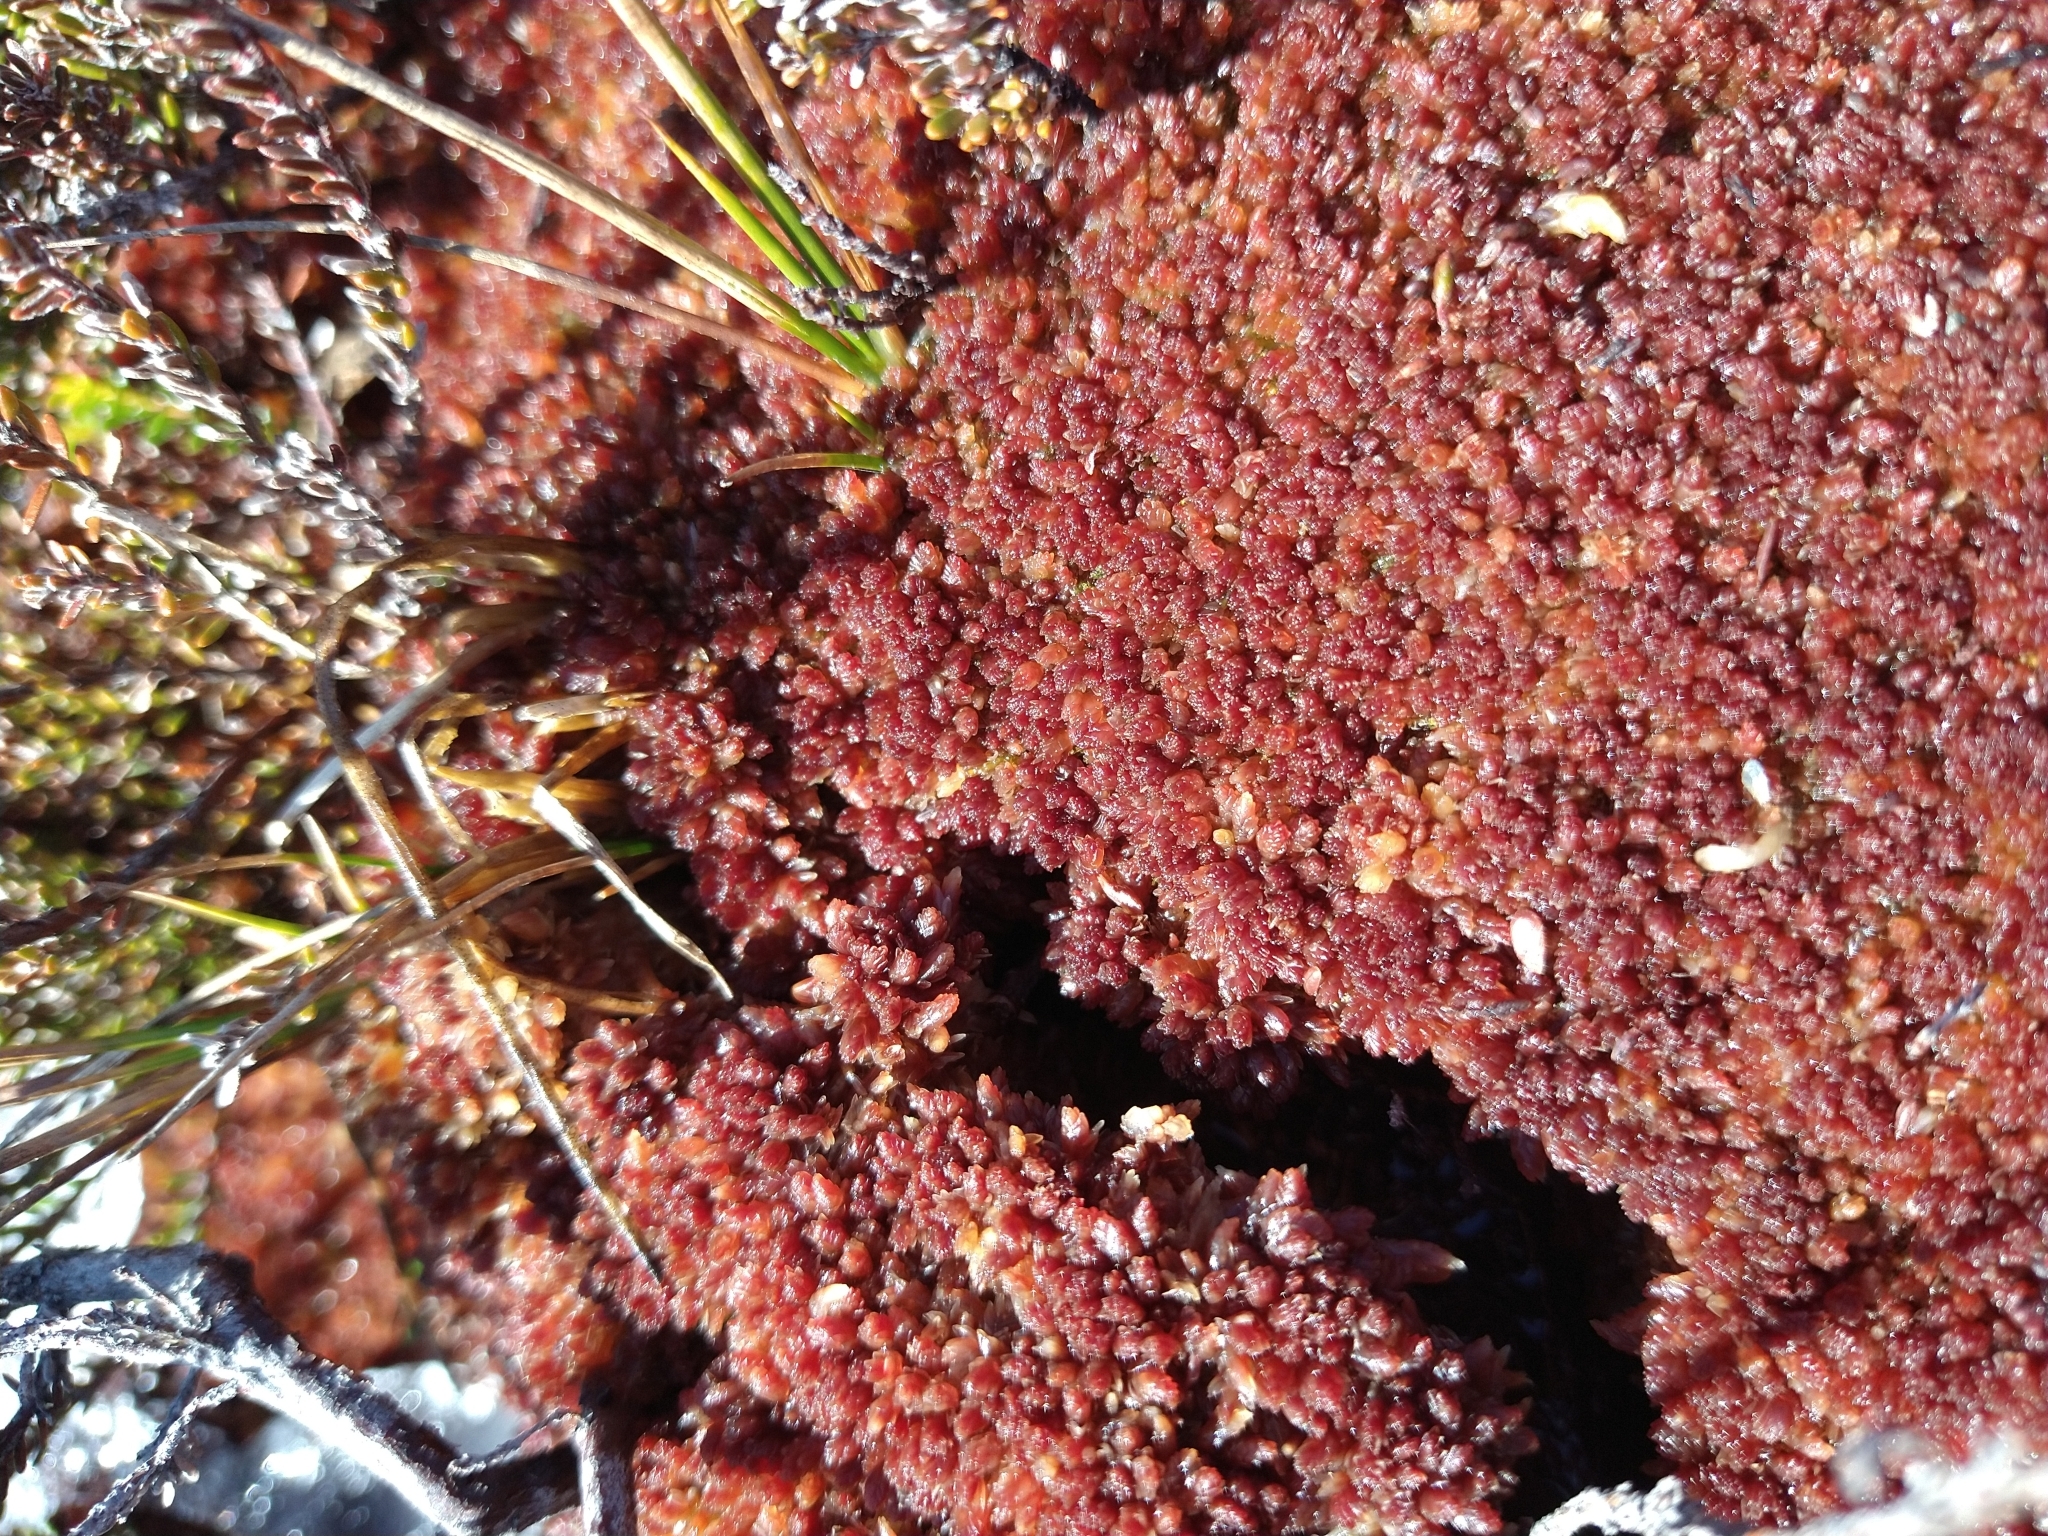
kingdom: Plantae
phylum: Bryophyta
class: Sphagnopsida
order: Sphagnales
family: Sphagnaceae
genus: Sphagnum
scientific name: Sphagnum magellanicum
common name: Magellan's peat moss
